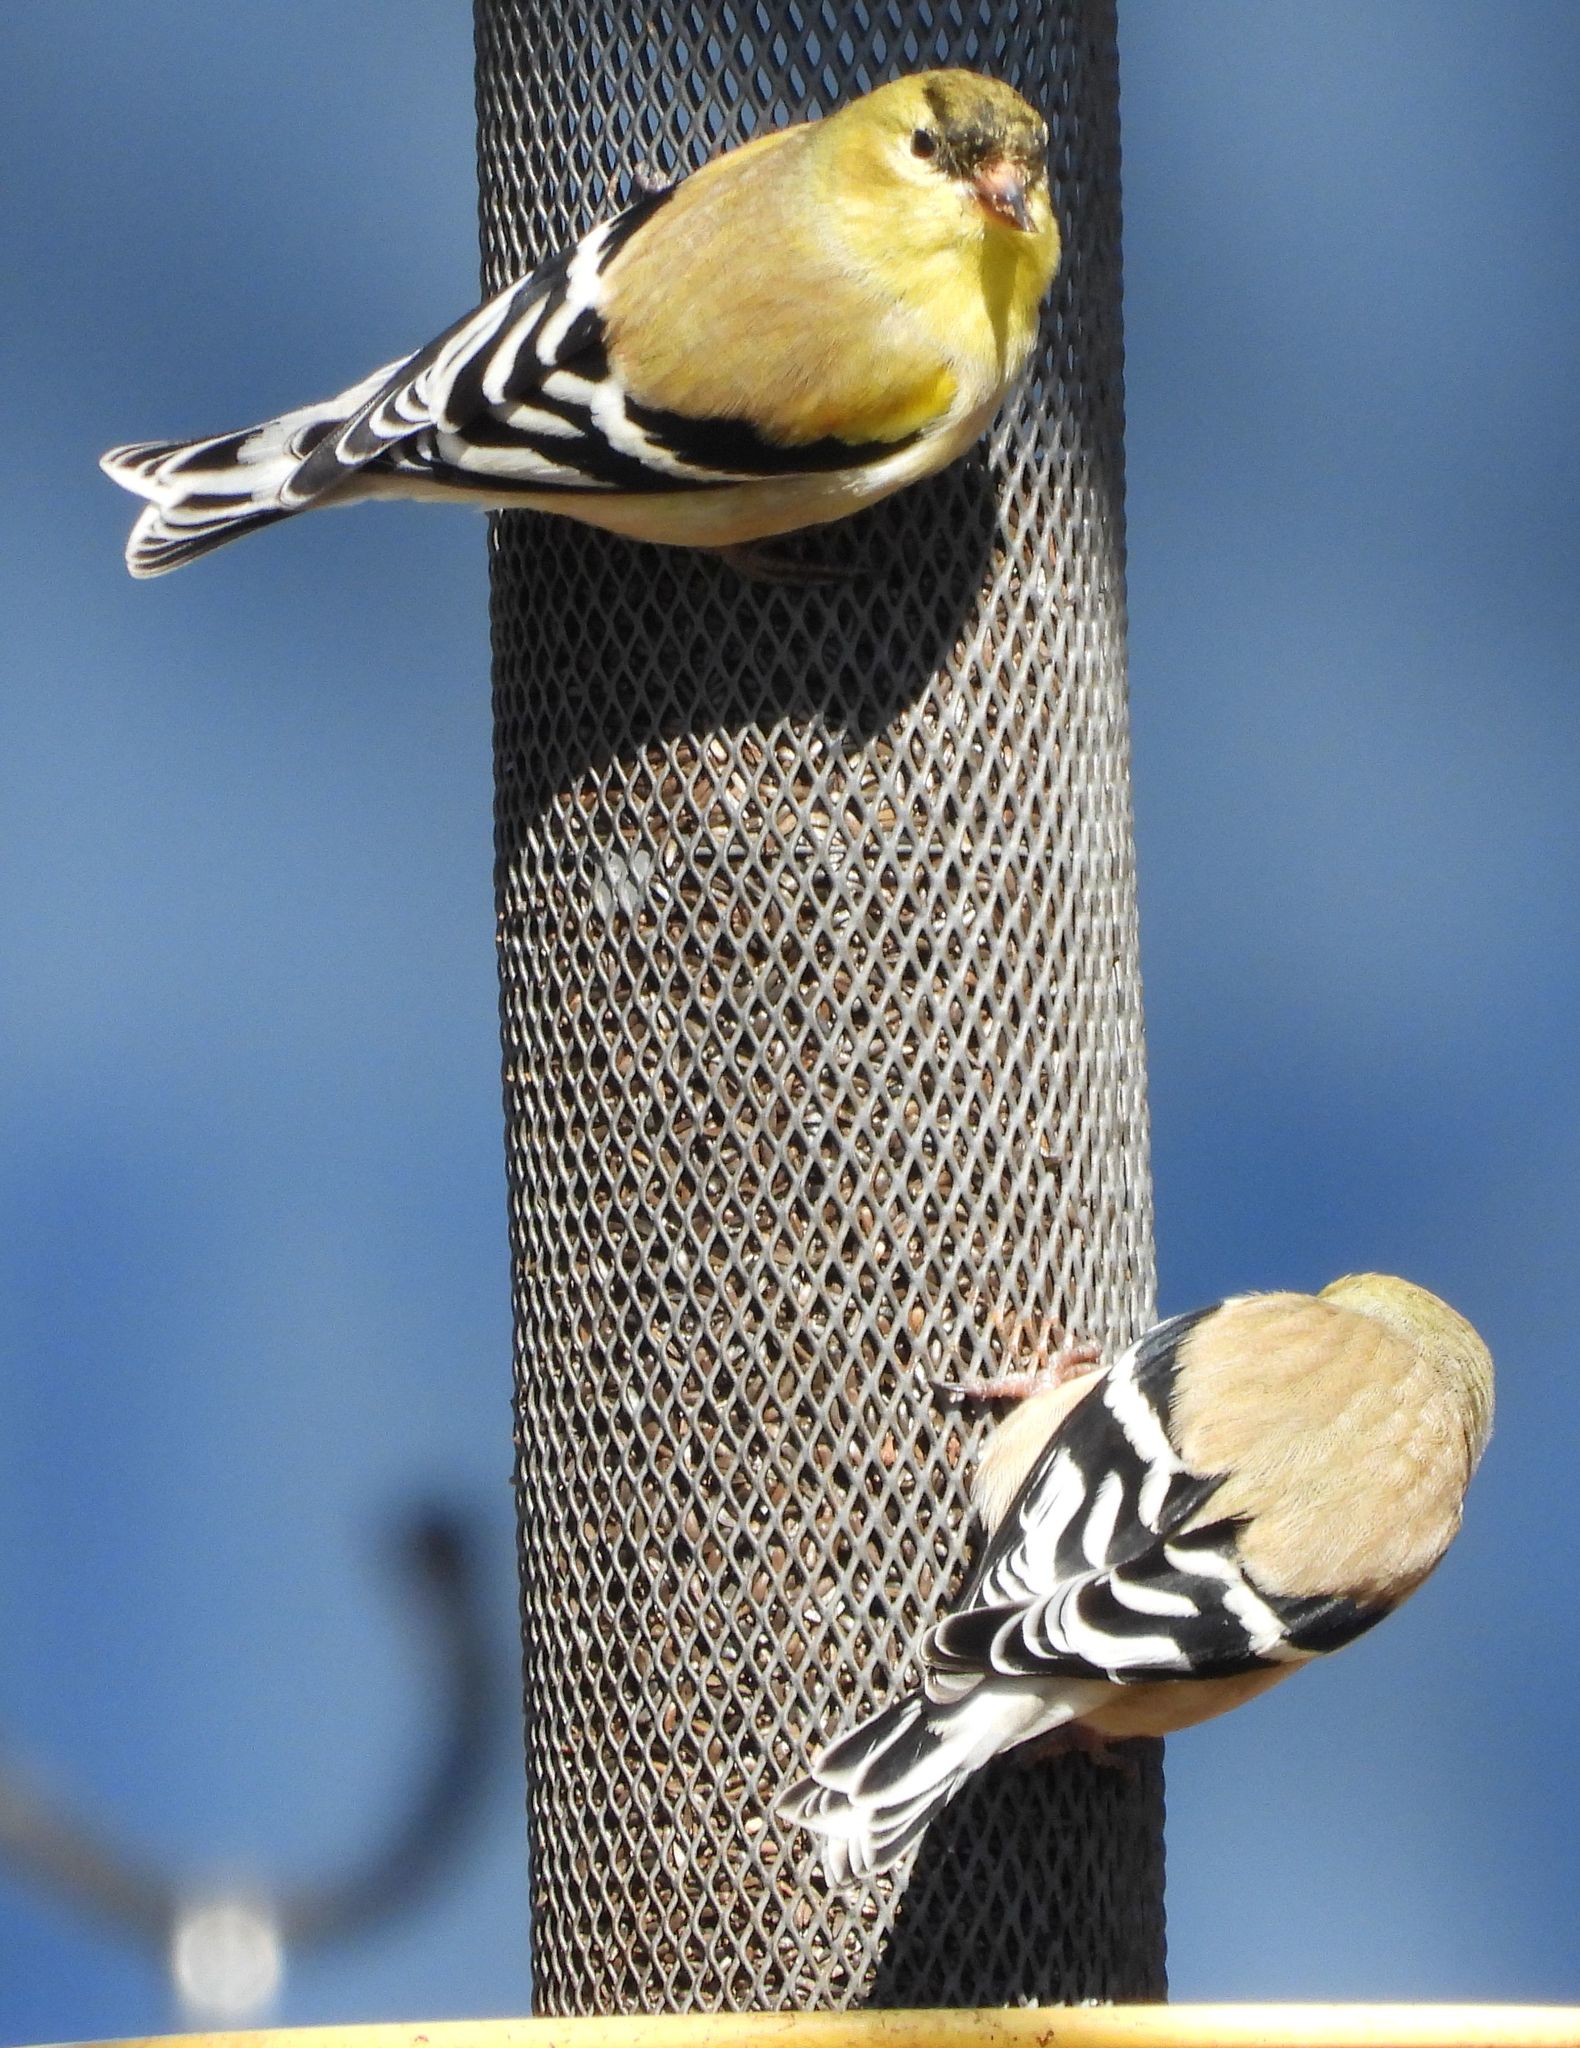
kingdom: Animalia
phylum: Chordata
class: Aves
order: Passeriformes
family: Fringillidae
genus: Spinus
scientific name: Spinus tristis
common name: American goldfinch
